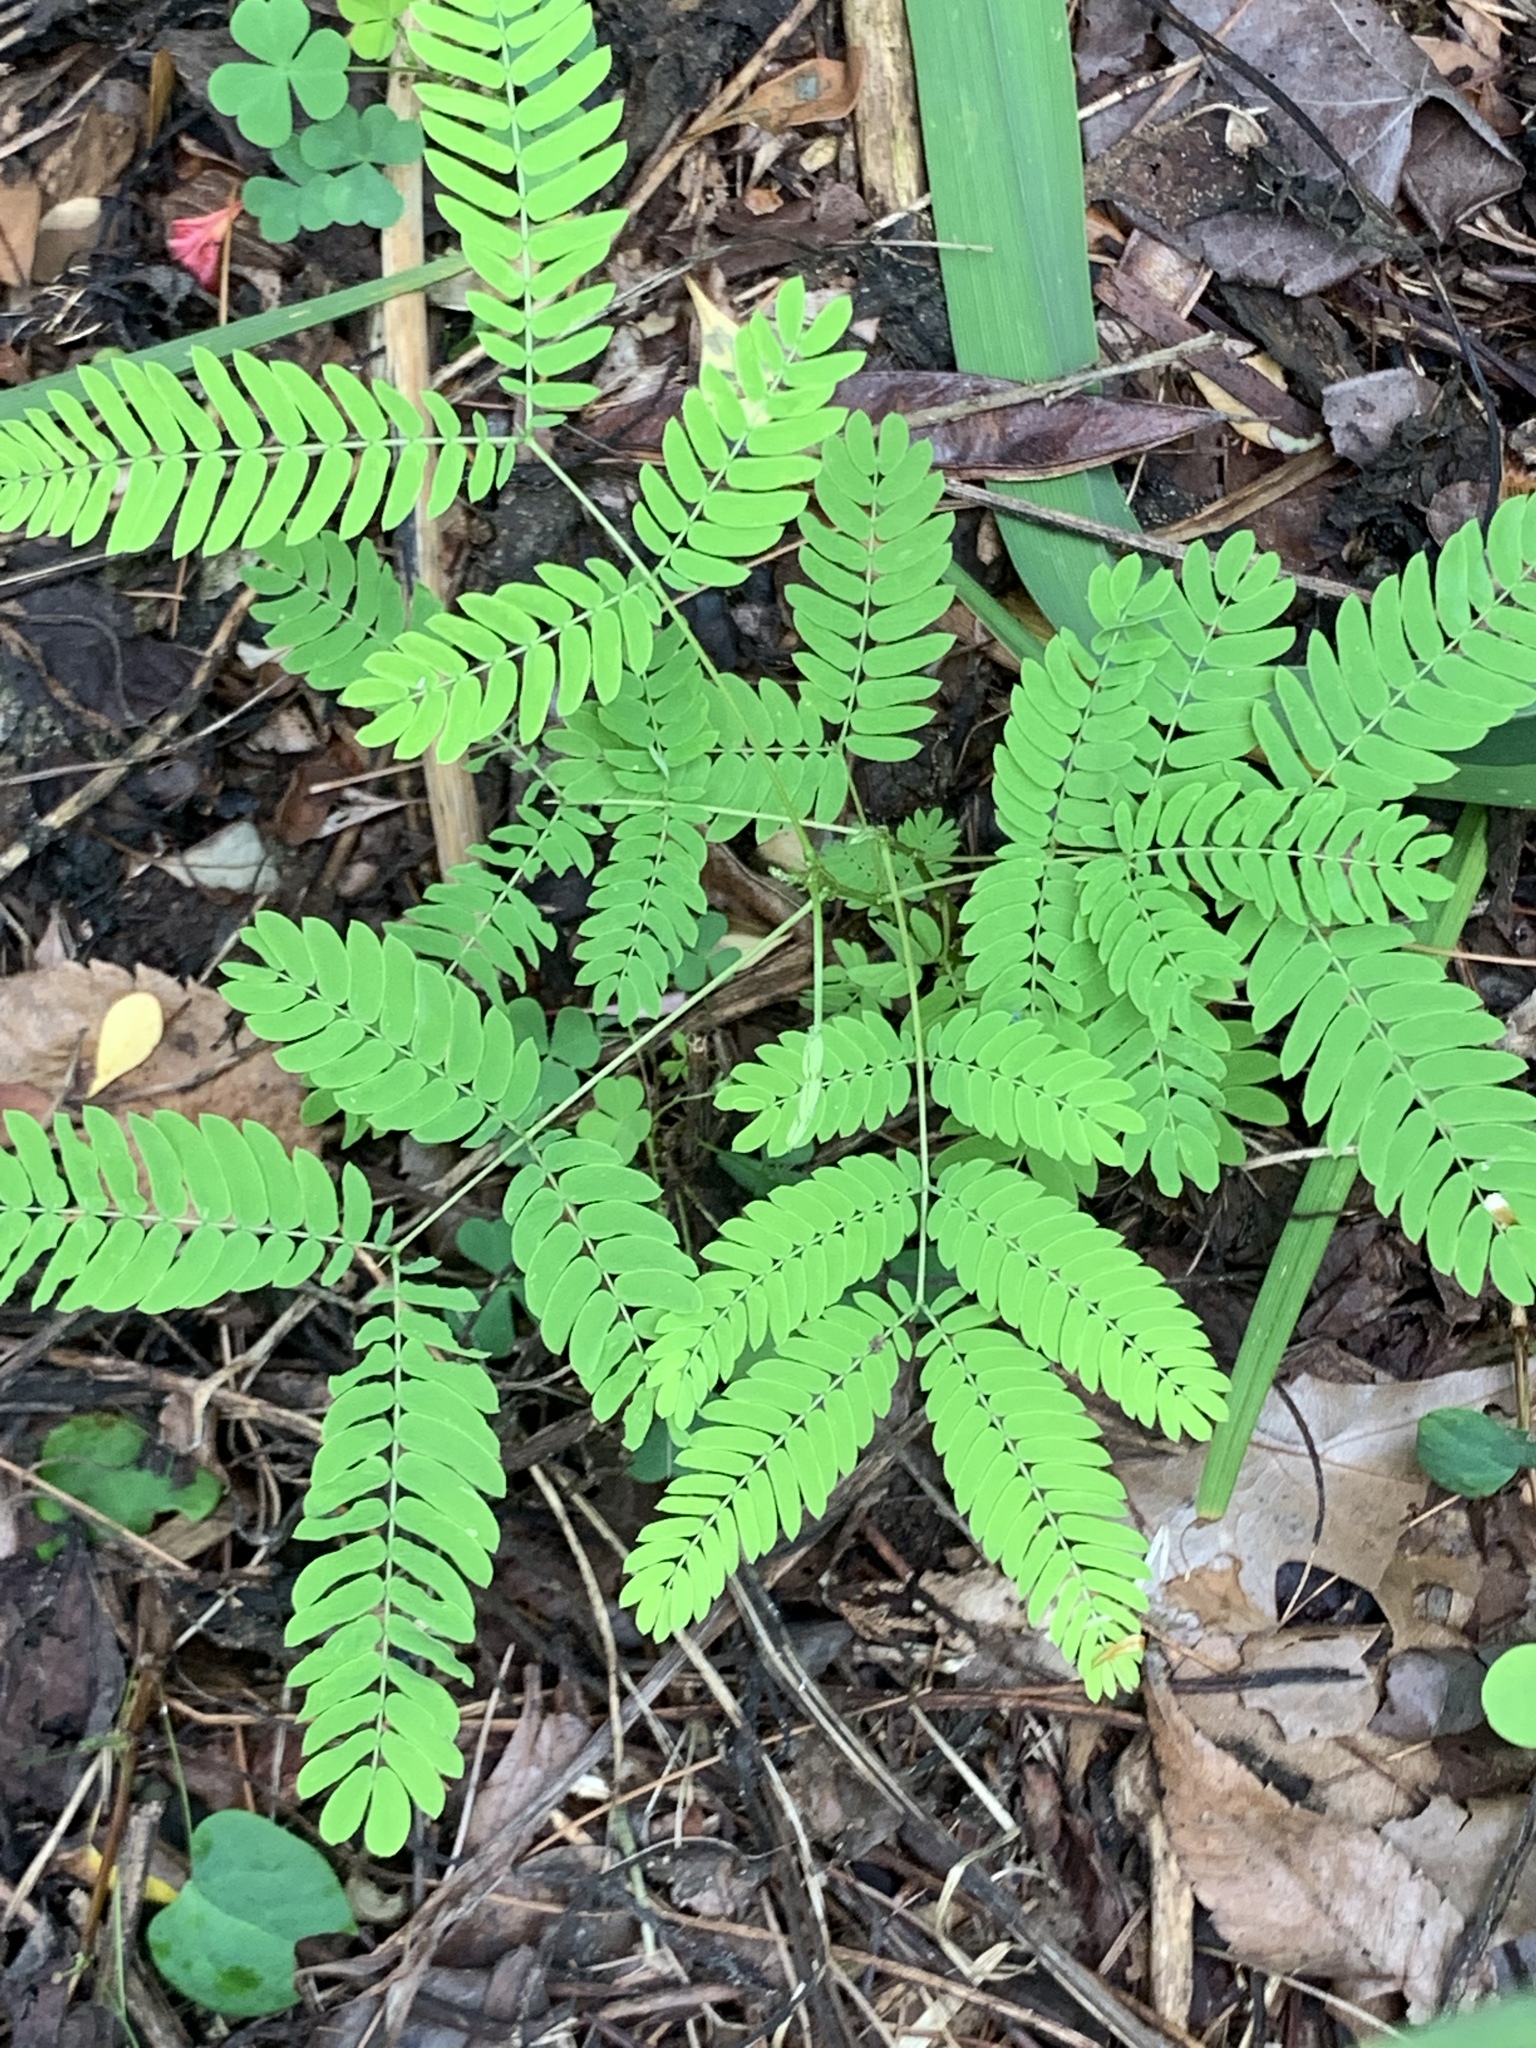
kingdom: Plantae
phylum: Tracheophyta
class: Magnoliopsida
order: Fabales
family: Fabaceae
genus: Albizia
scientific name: Albizia julibrissin
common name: Silktree
